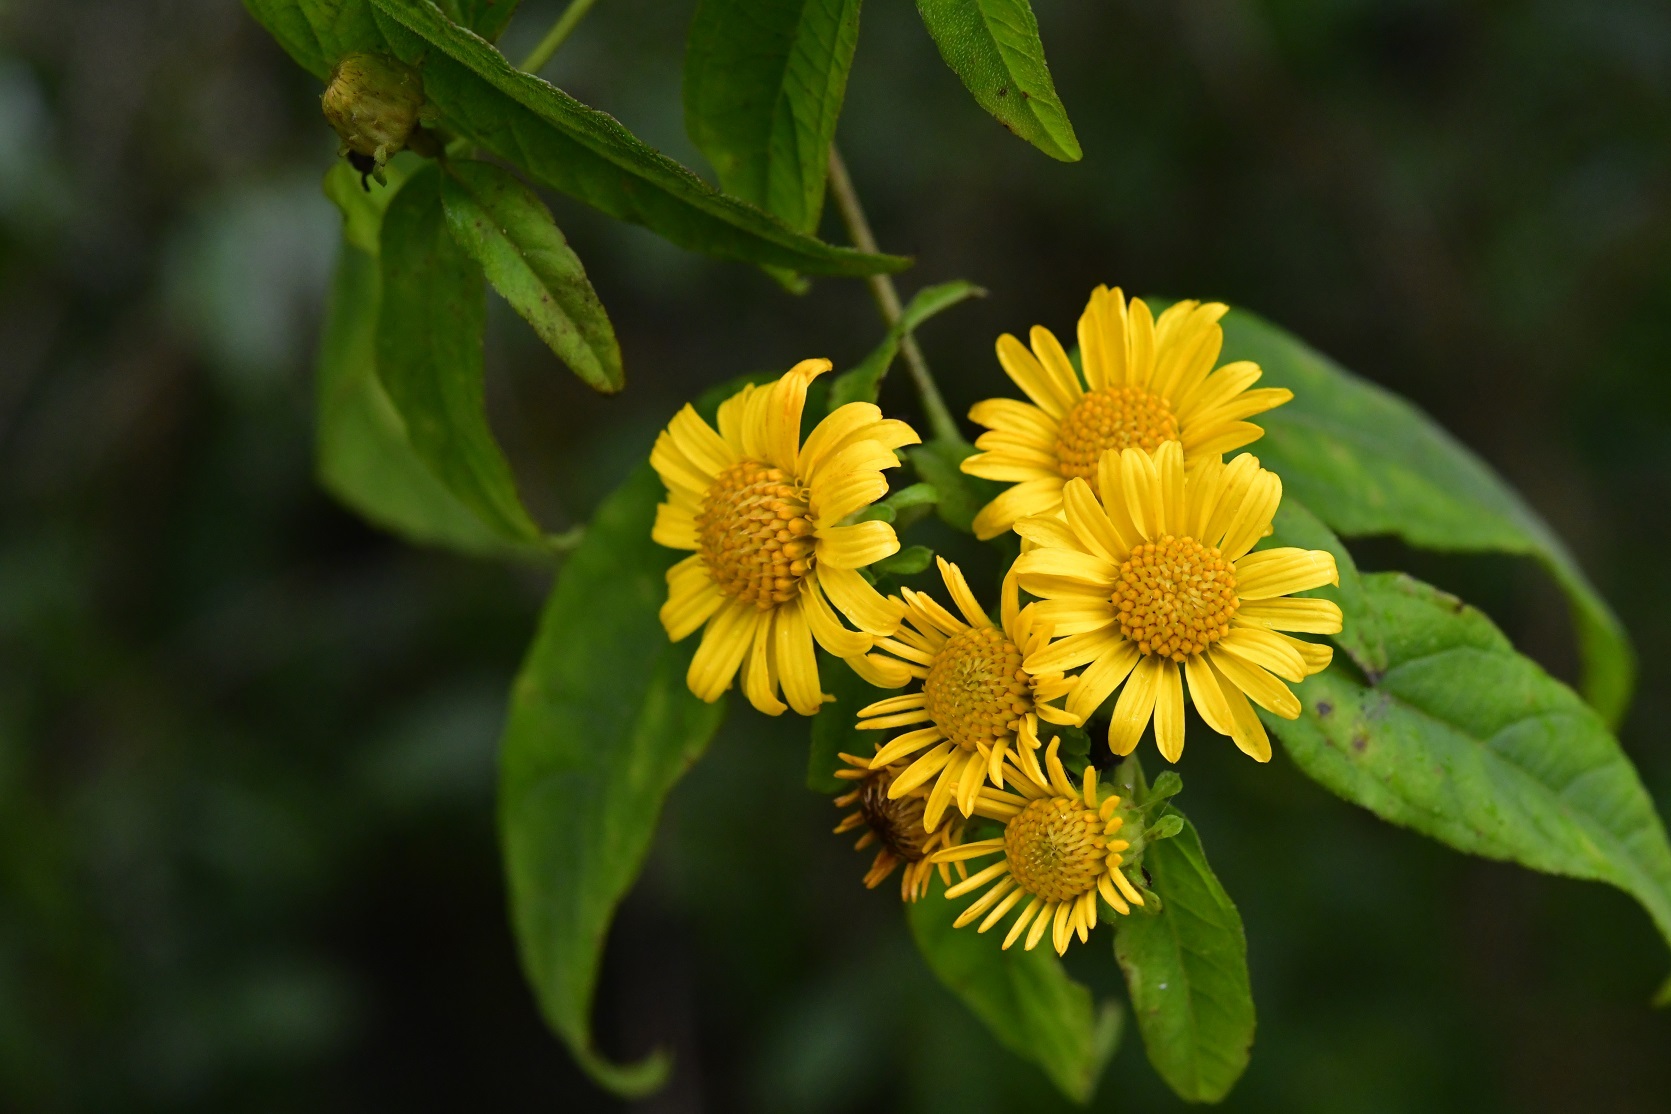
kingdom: Plantae
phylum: Tracheophyta
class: Magnoliopsida
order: Asterales
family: Asteraceae
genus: Otopappus
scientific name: Otopappus scaber
